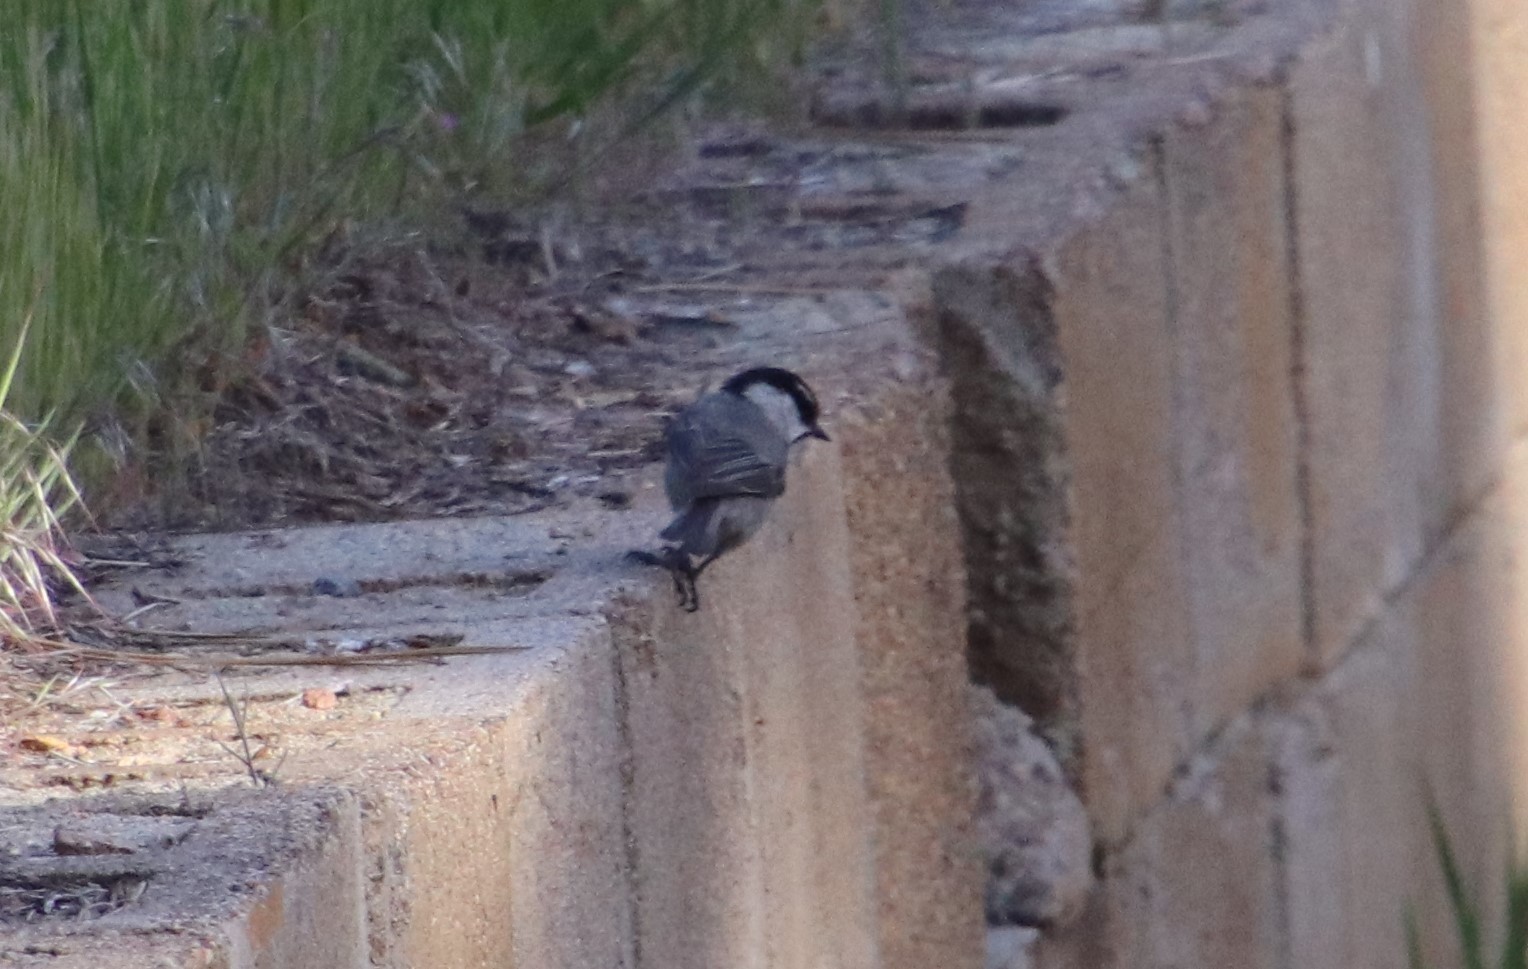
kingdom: Animalia
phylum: Chordata
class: Aves
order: Passeriformes
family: Paridae
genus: Poecile
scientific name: Poecile gambeli
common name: Mountain chickadee
